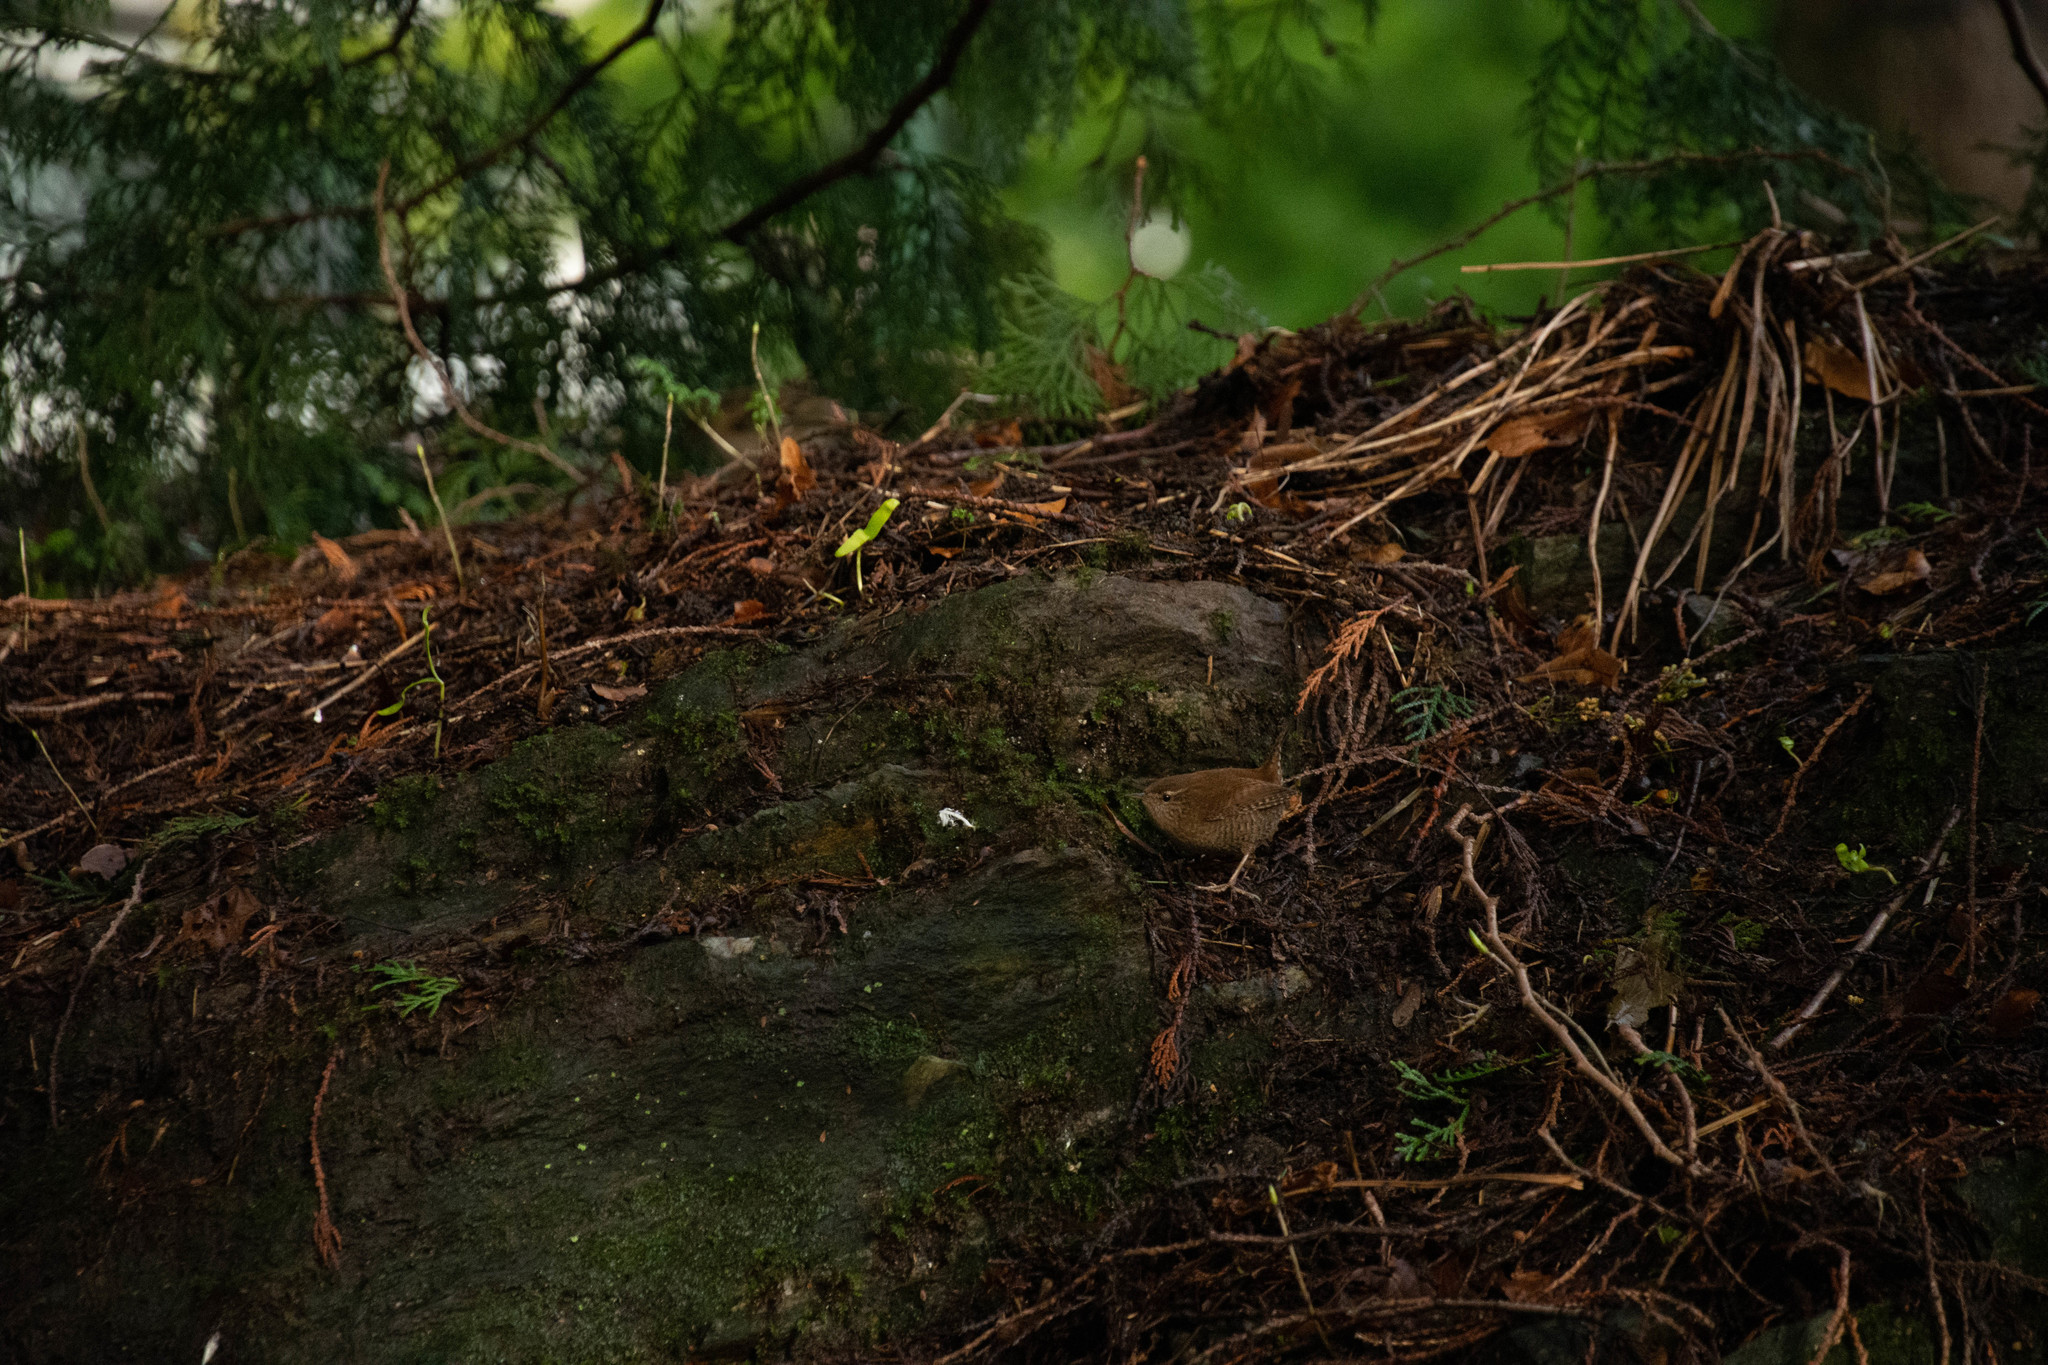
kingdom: Animalia
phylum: Chordata
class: Aves
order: Passeriformes
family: Troglodytidae
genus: Troglodytes
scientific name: Troglodytes troglodytes
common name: Eurasian wren
